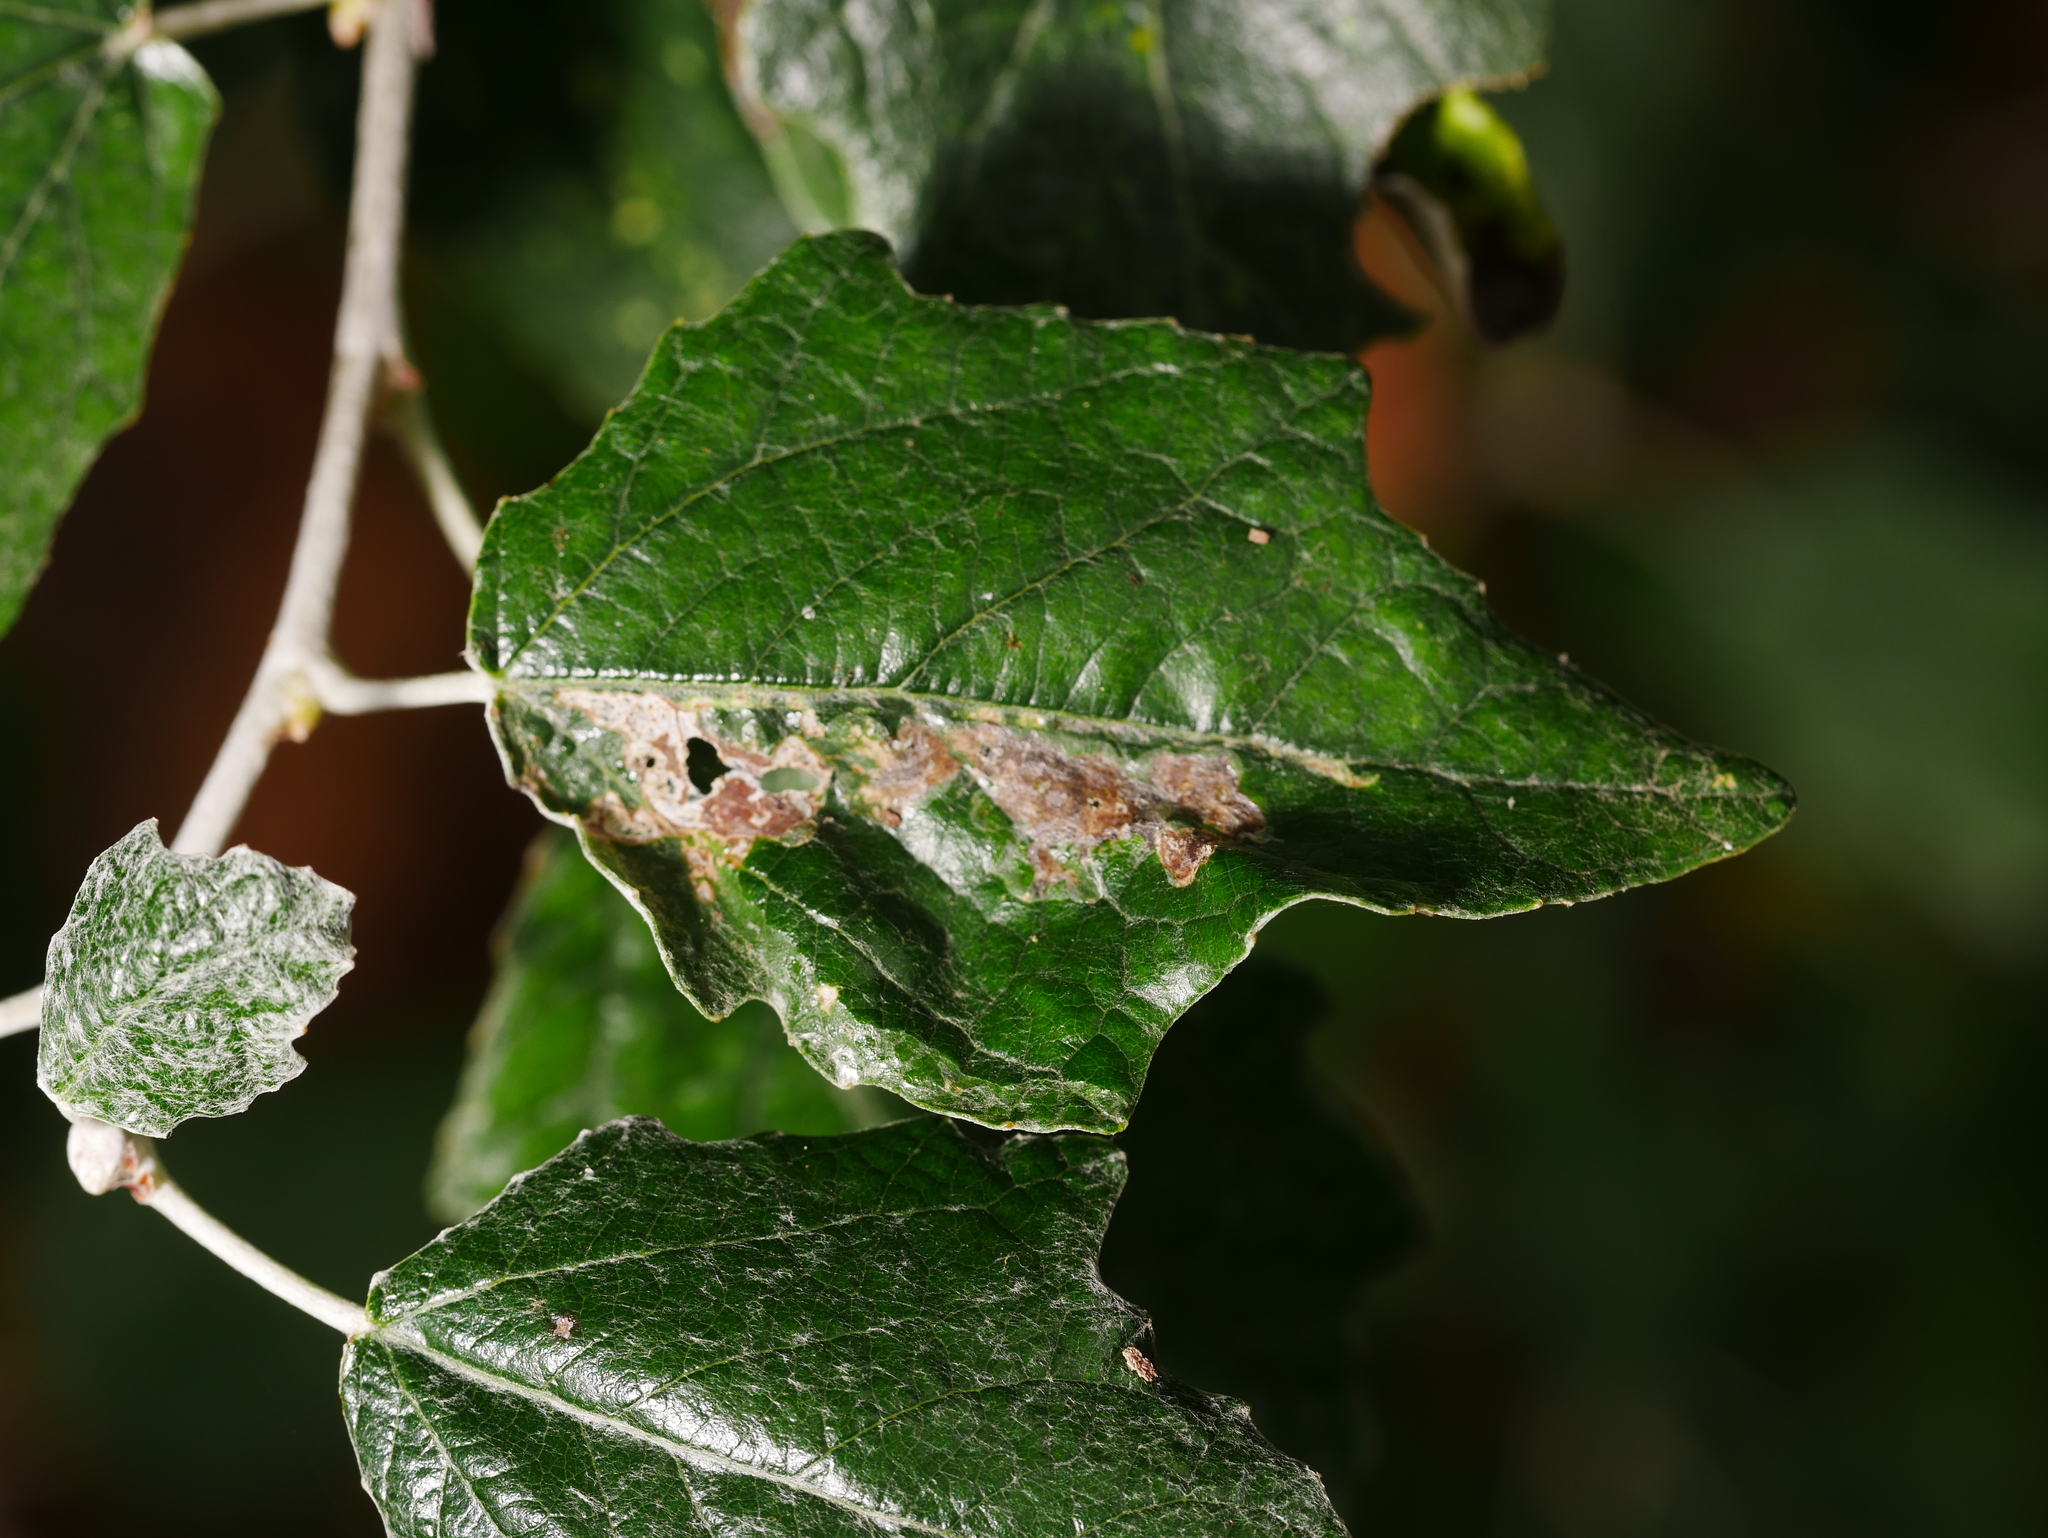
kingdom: Plantae
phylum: Tracheophyta
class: Magnoliopsida
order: Malpighiales
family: Salicaceae
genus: Populus
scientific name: Populus alba
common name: White poplar
